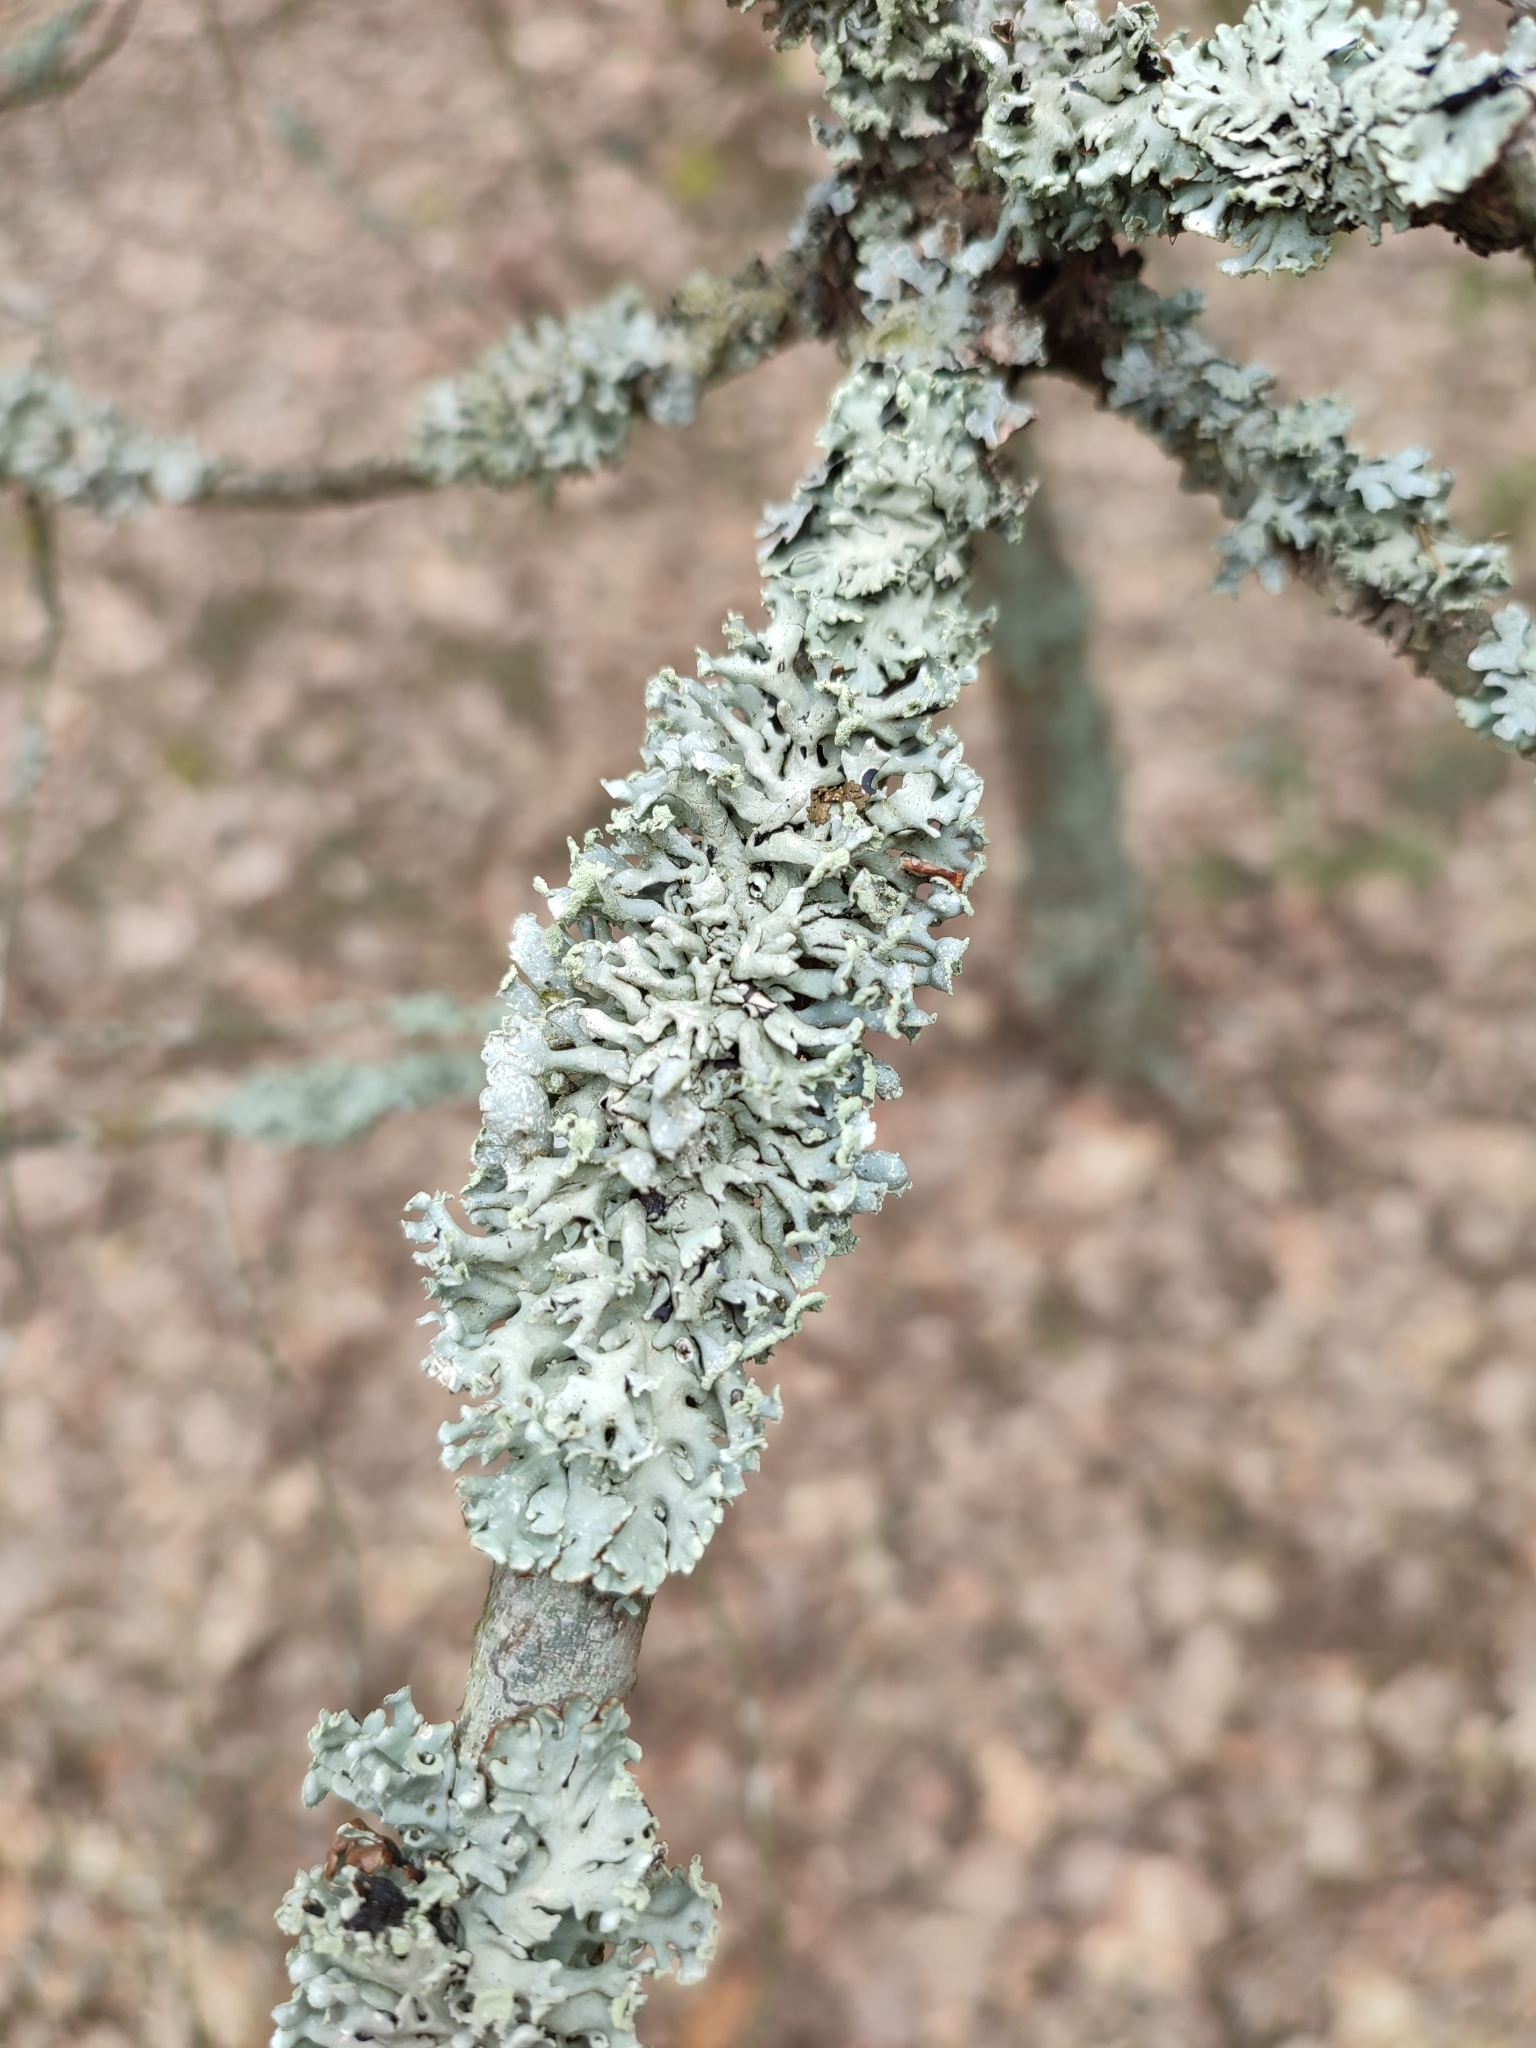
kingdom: Fungi
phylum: Ascomycota
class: Lecanoromycetes
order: Lecanorales
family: Parmeliaceae
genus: Hypogymnia
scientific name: Hypogymnia physodes
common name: Dark crottle
